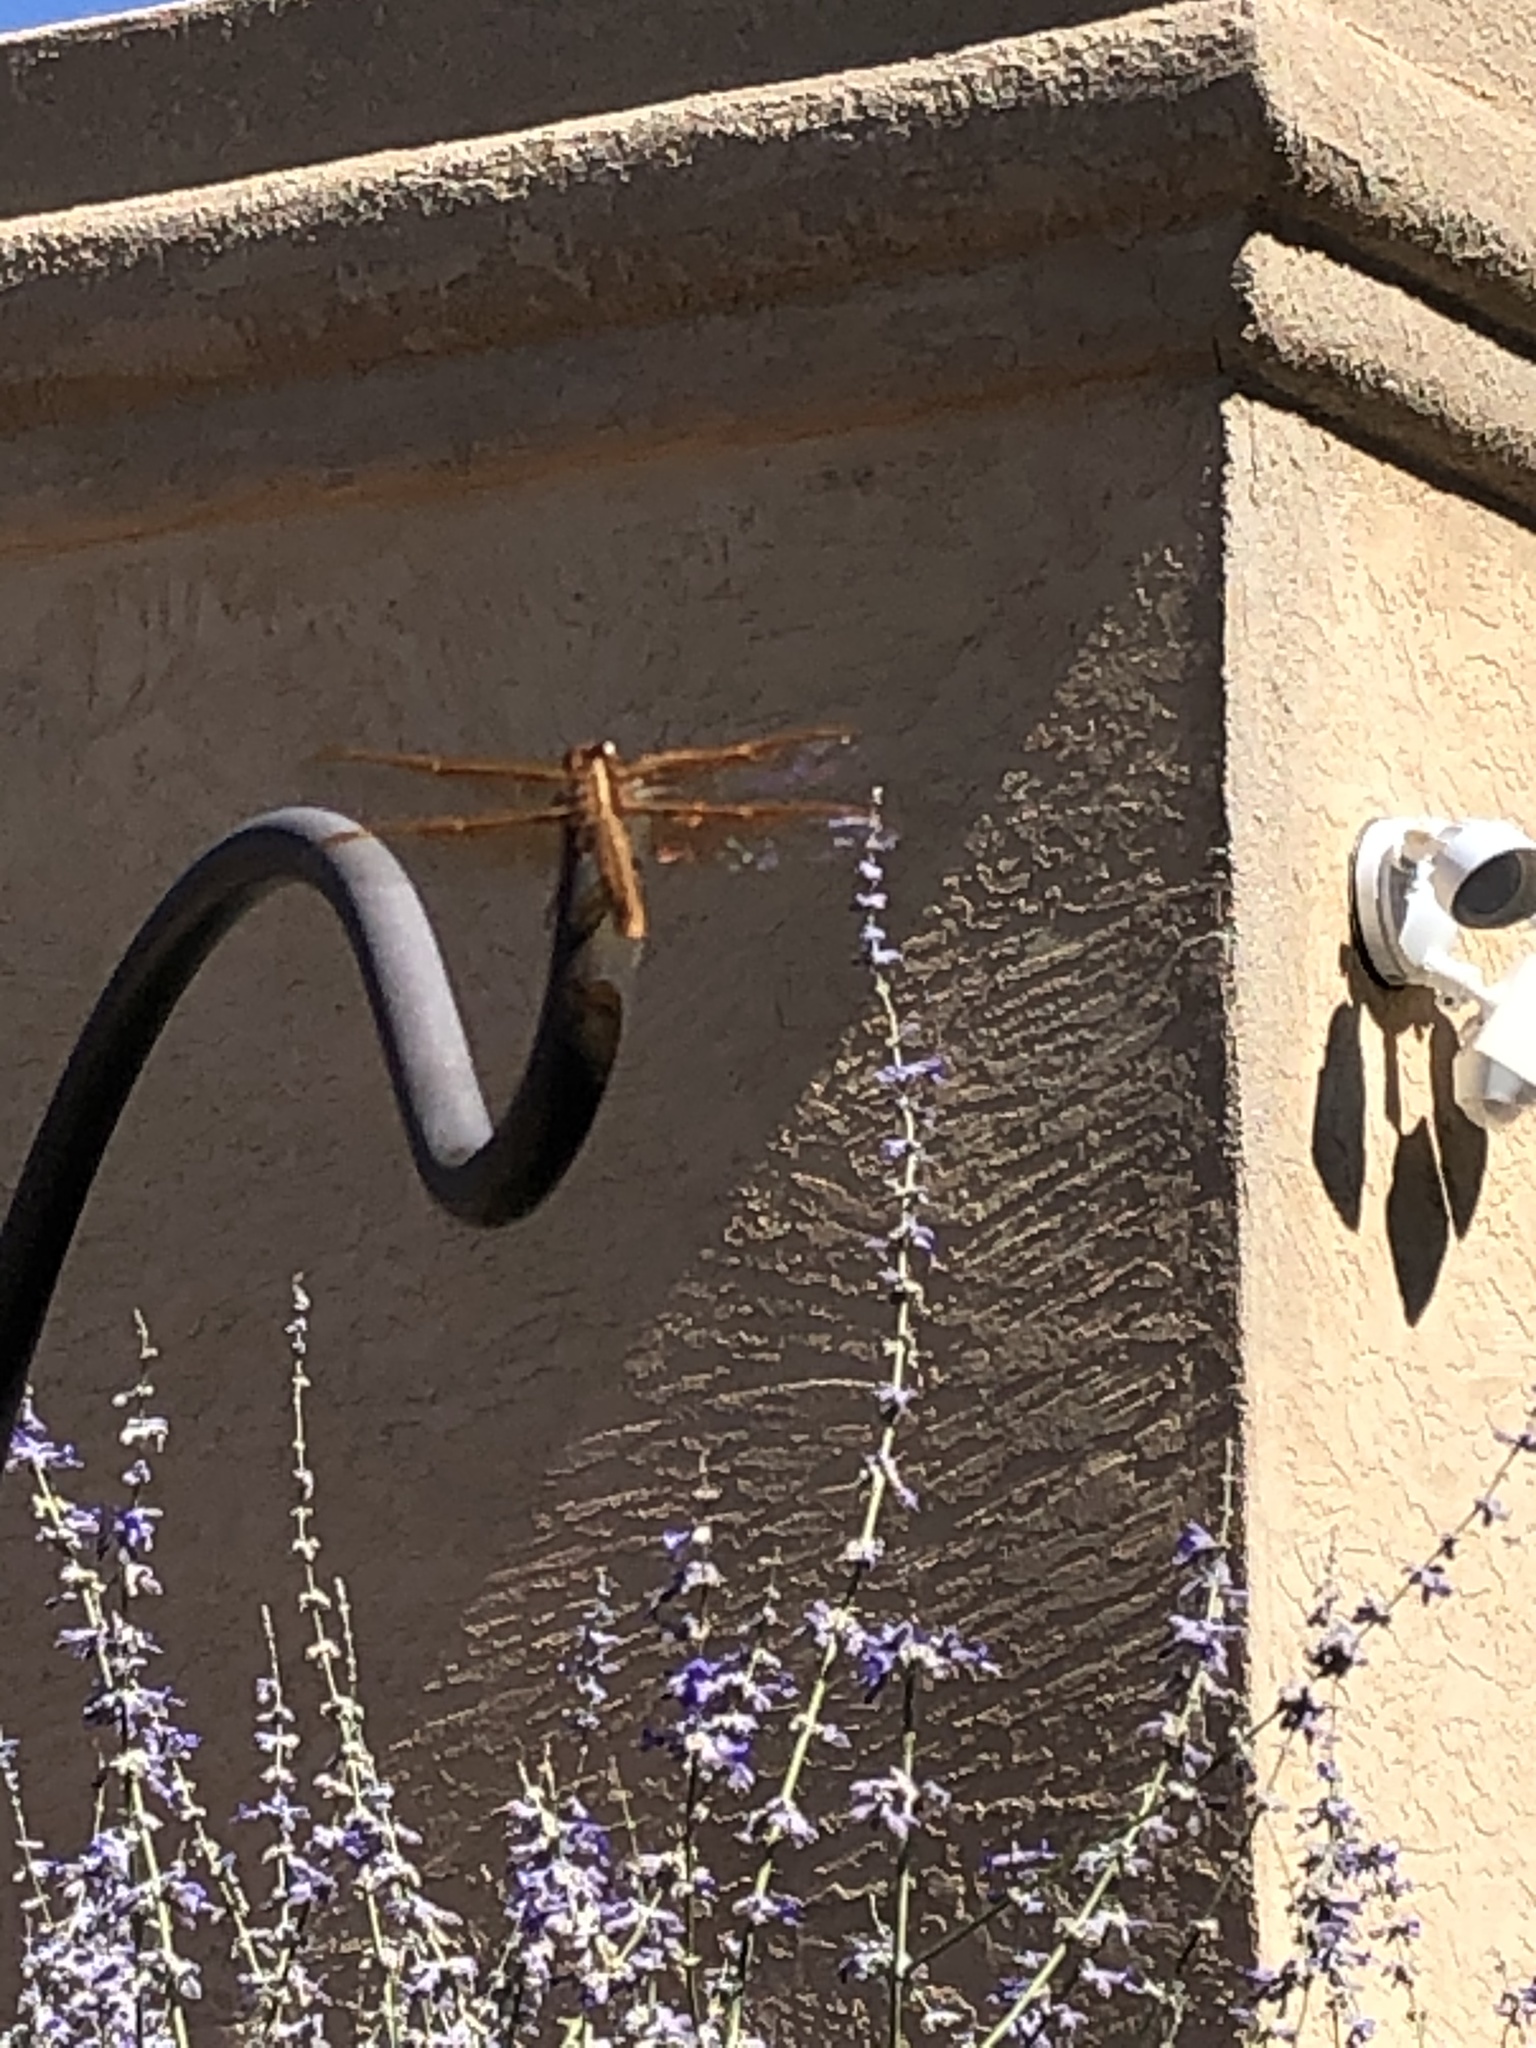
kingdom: Animalia
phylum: Arthropoda
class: Insecta
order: Odonata
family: Libellulidae
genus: Libellula
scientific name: Libellula saturata
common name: Flame skimmer
